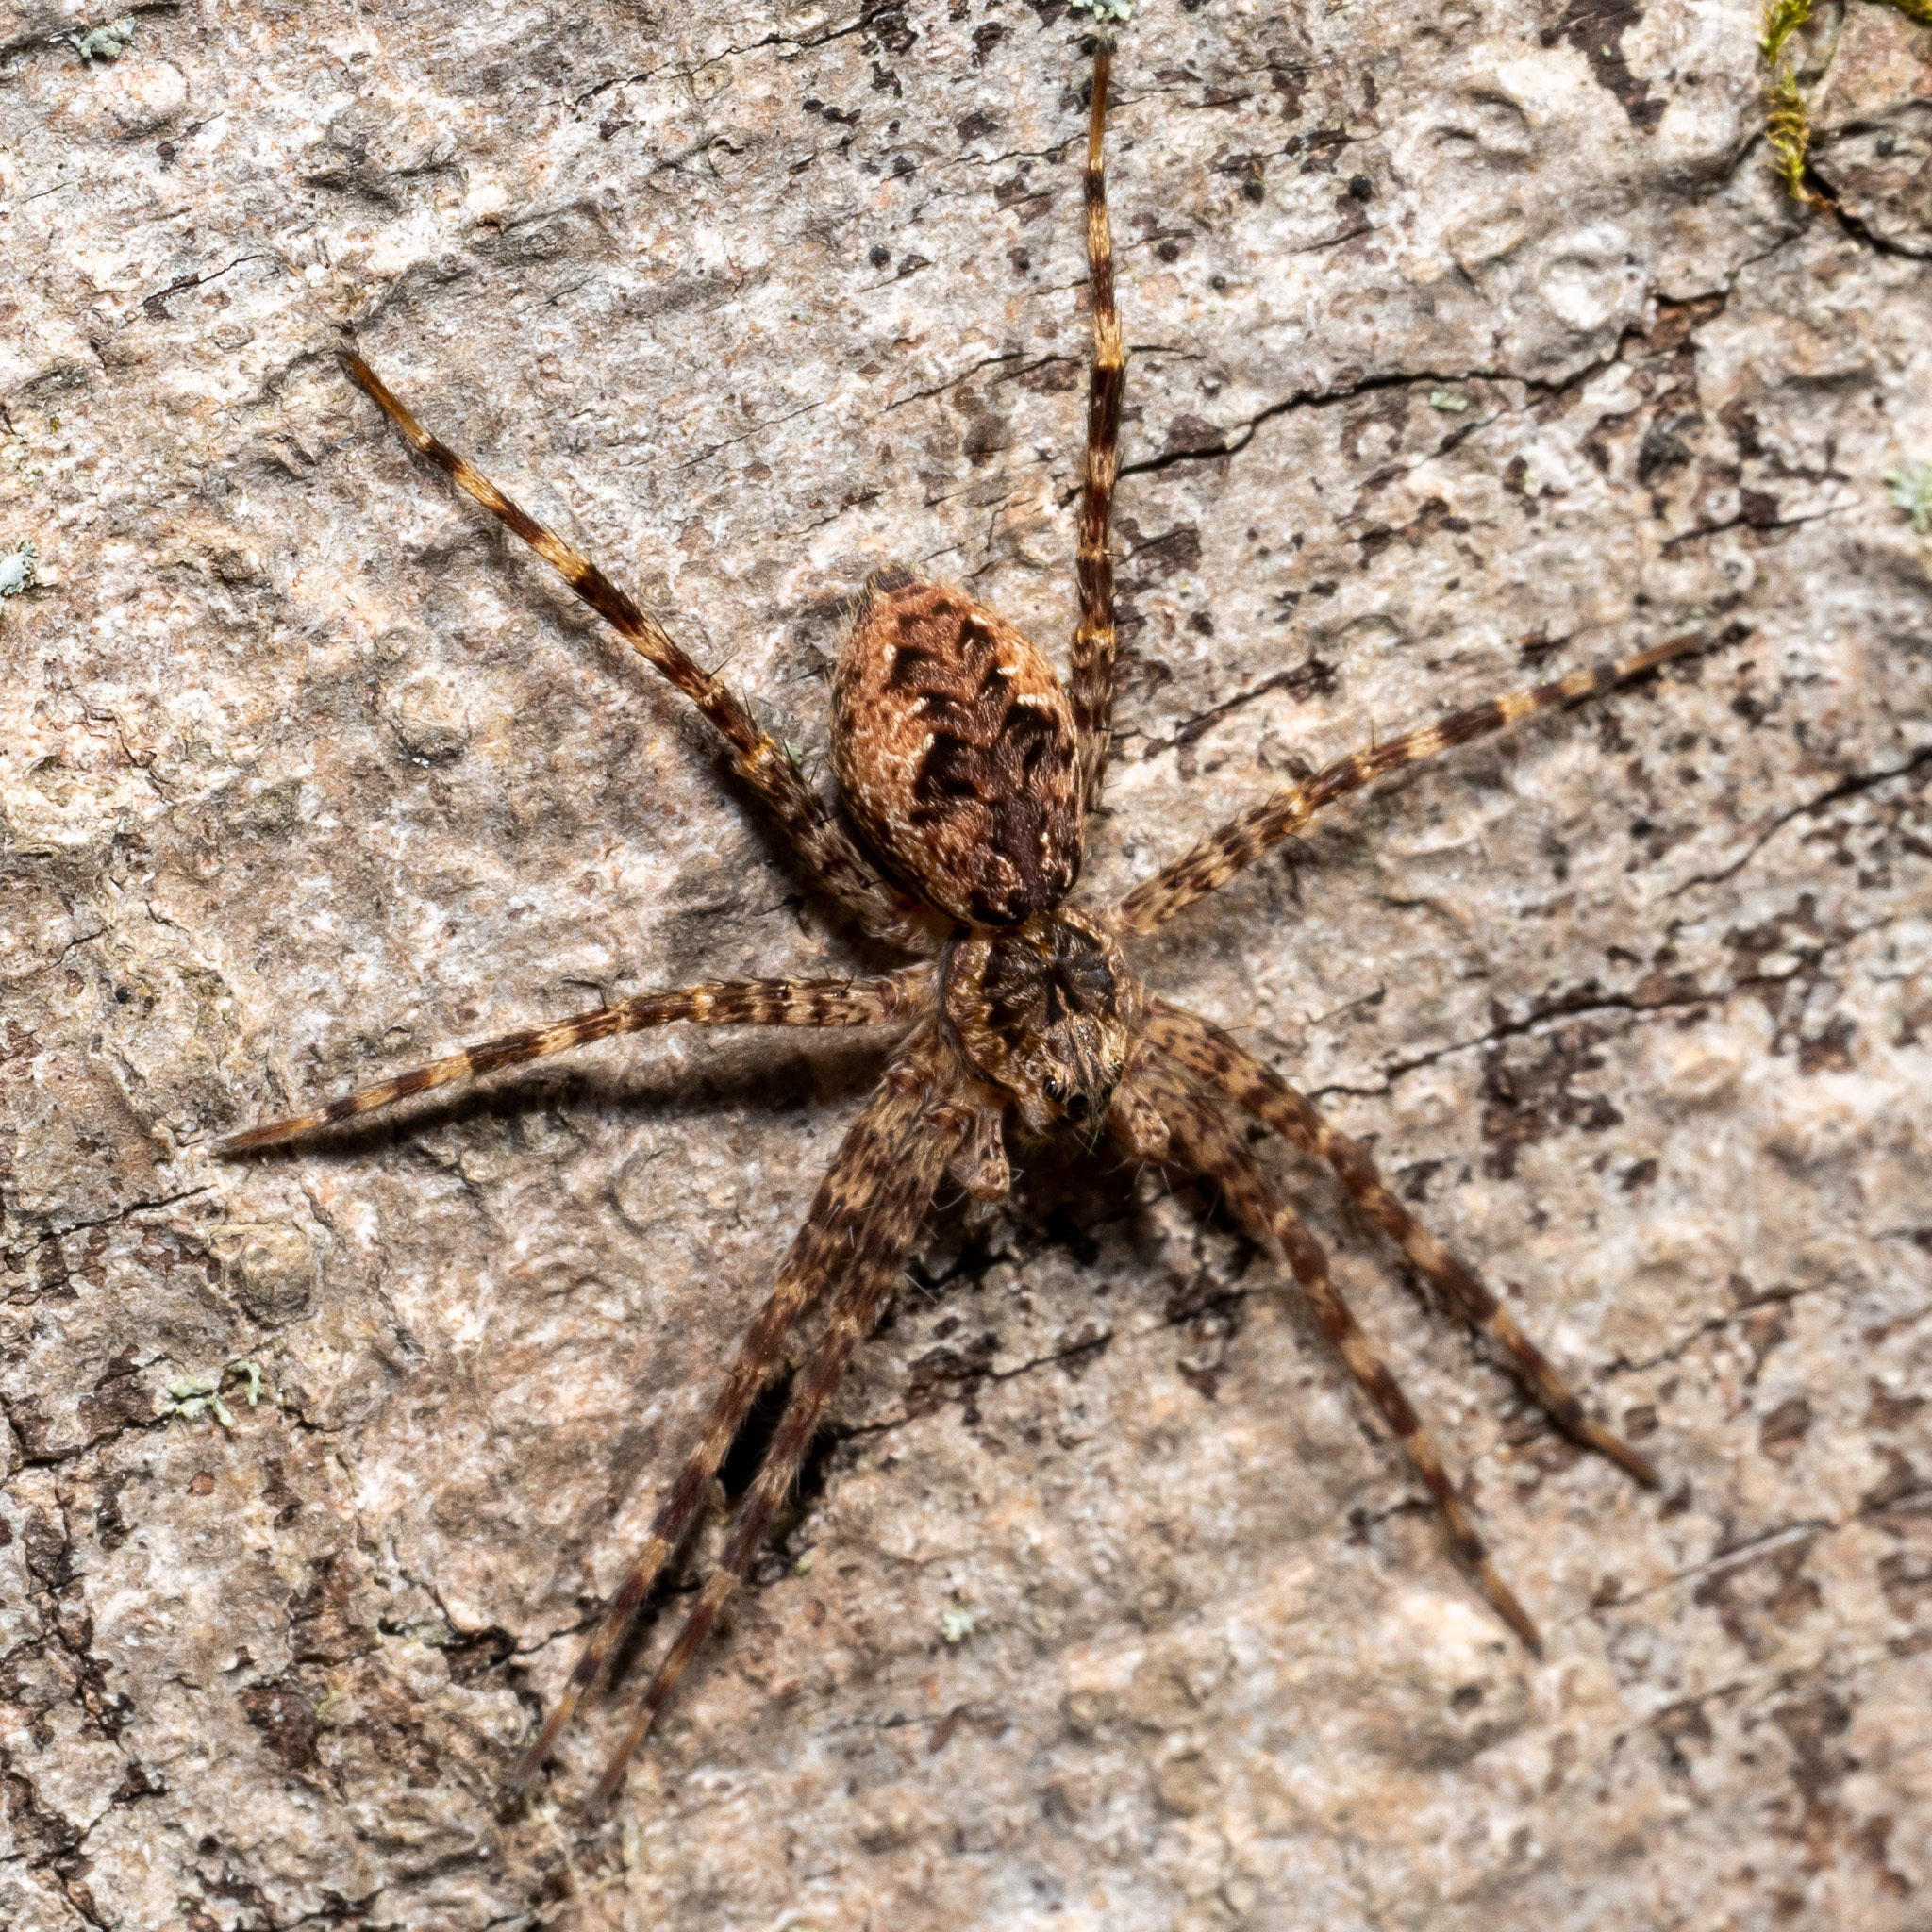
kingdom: Animalia
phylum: Arthropoda
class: Arachnida
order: Araneae
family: Pisauridae
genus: Dolomedes
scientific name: Dolomedes tenebrosus
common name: Dark fishing spider
